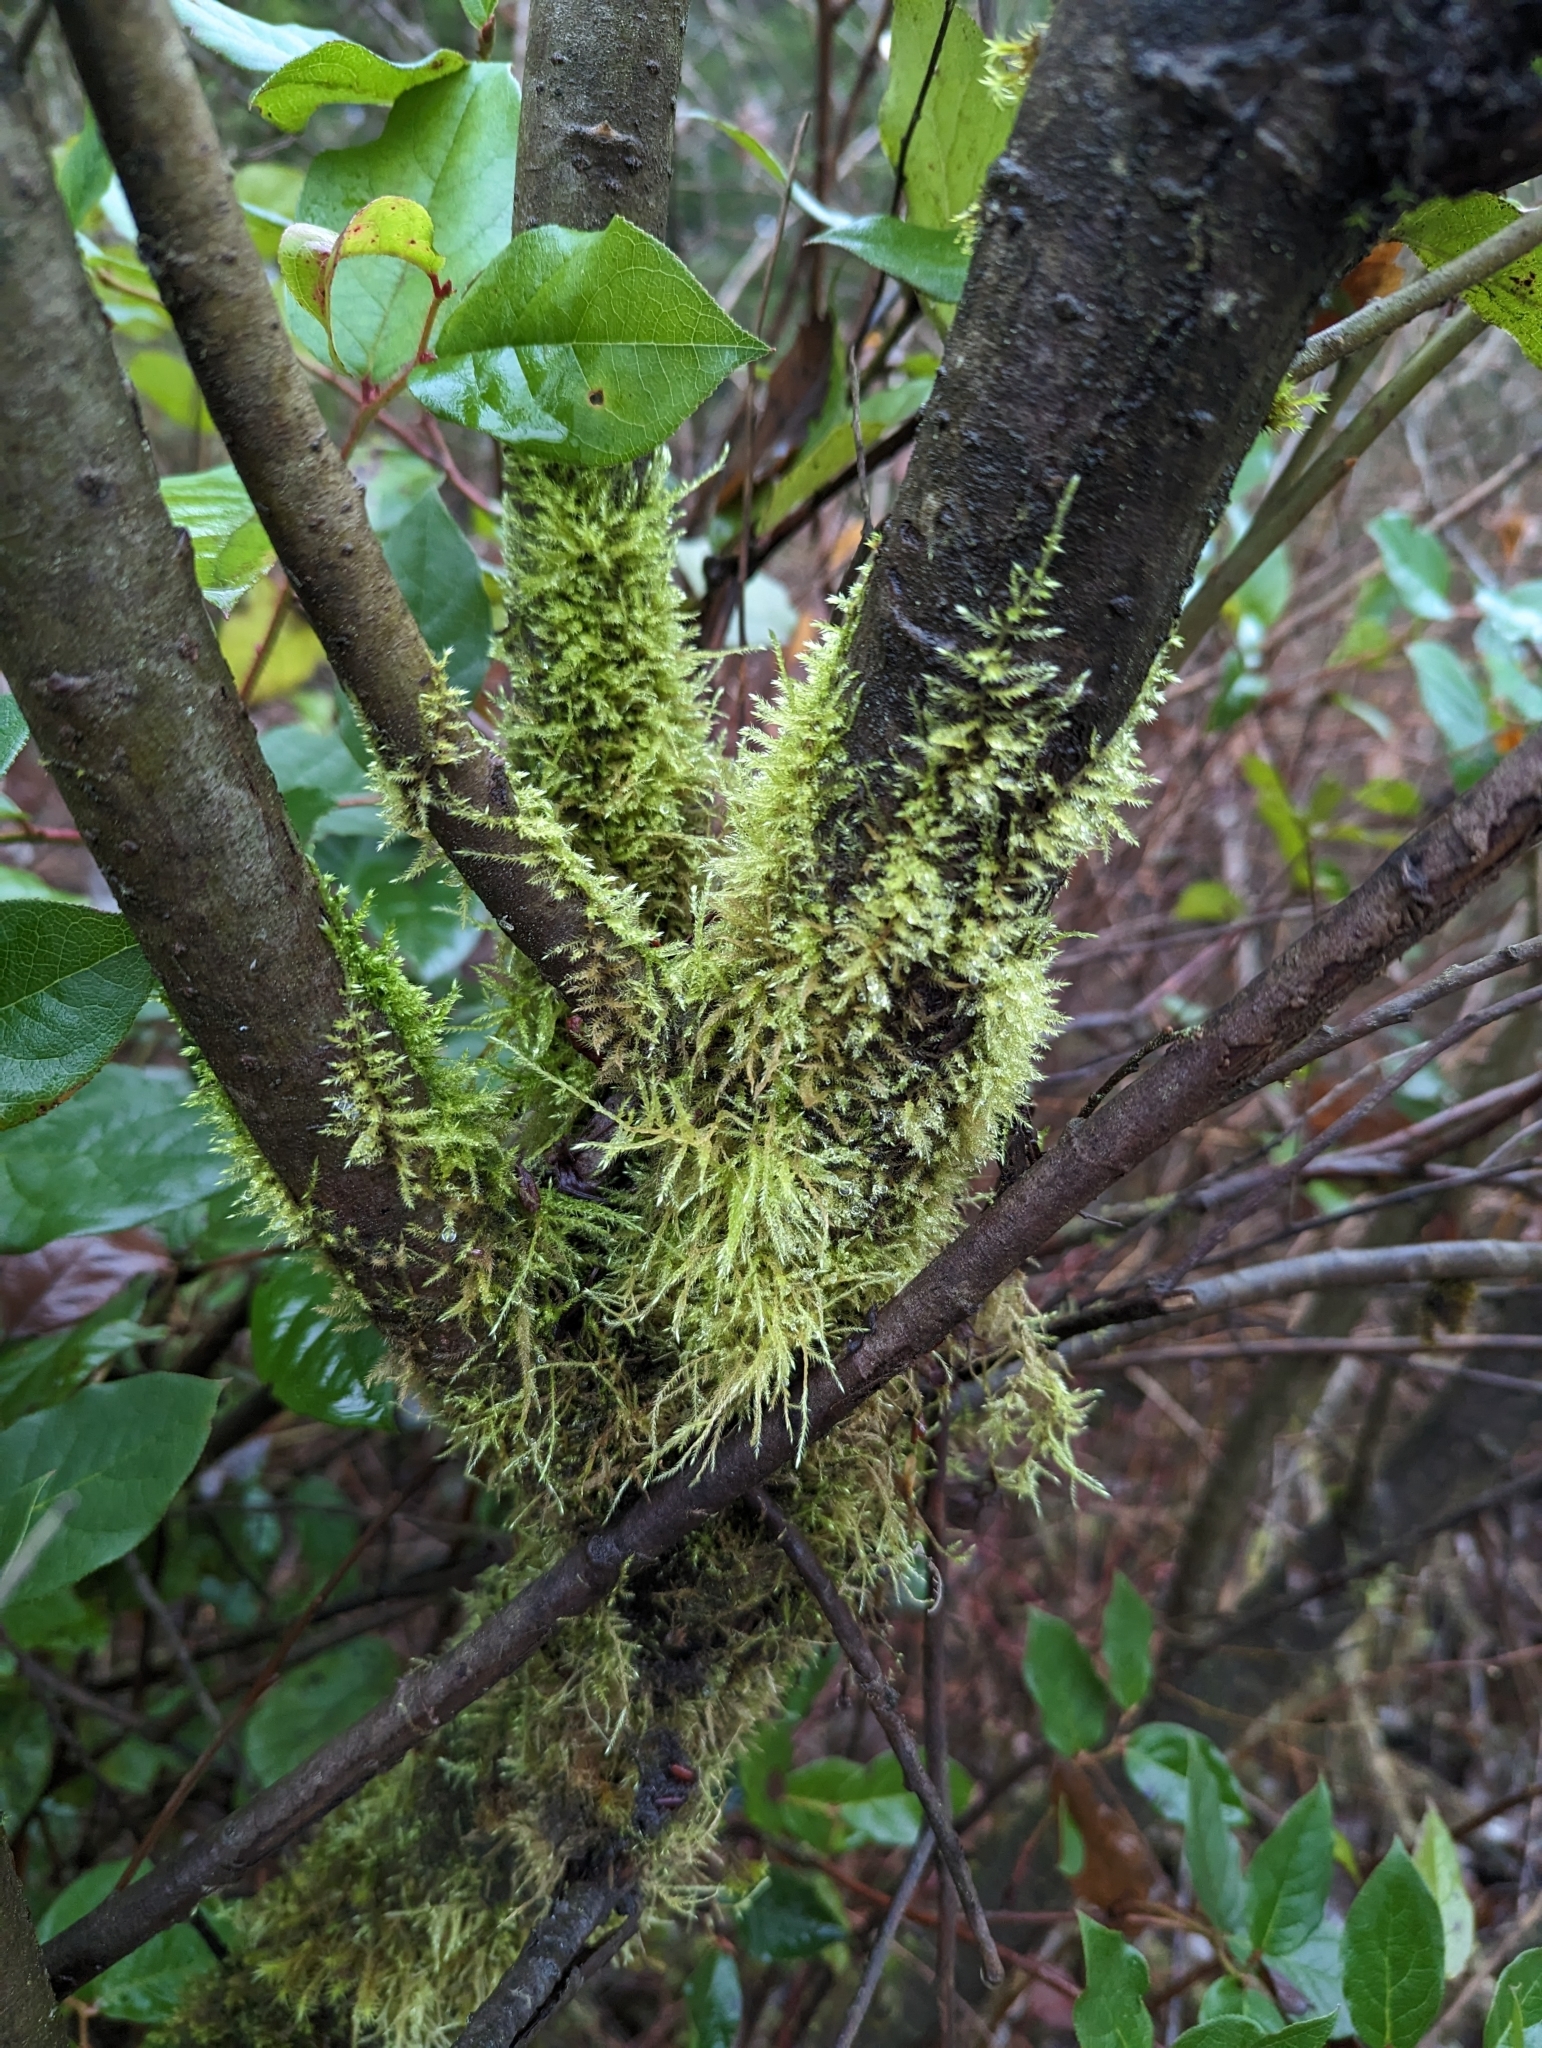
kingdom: Plantae
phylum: Bryophyta
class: Bryopsida
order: Hypnales
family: Lembophyllaceae
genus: Pseudisothecium
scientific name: Pseudisothecium stoloniferum
